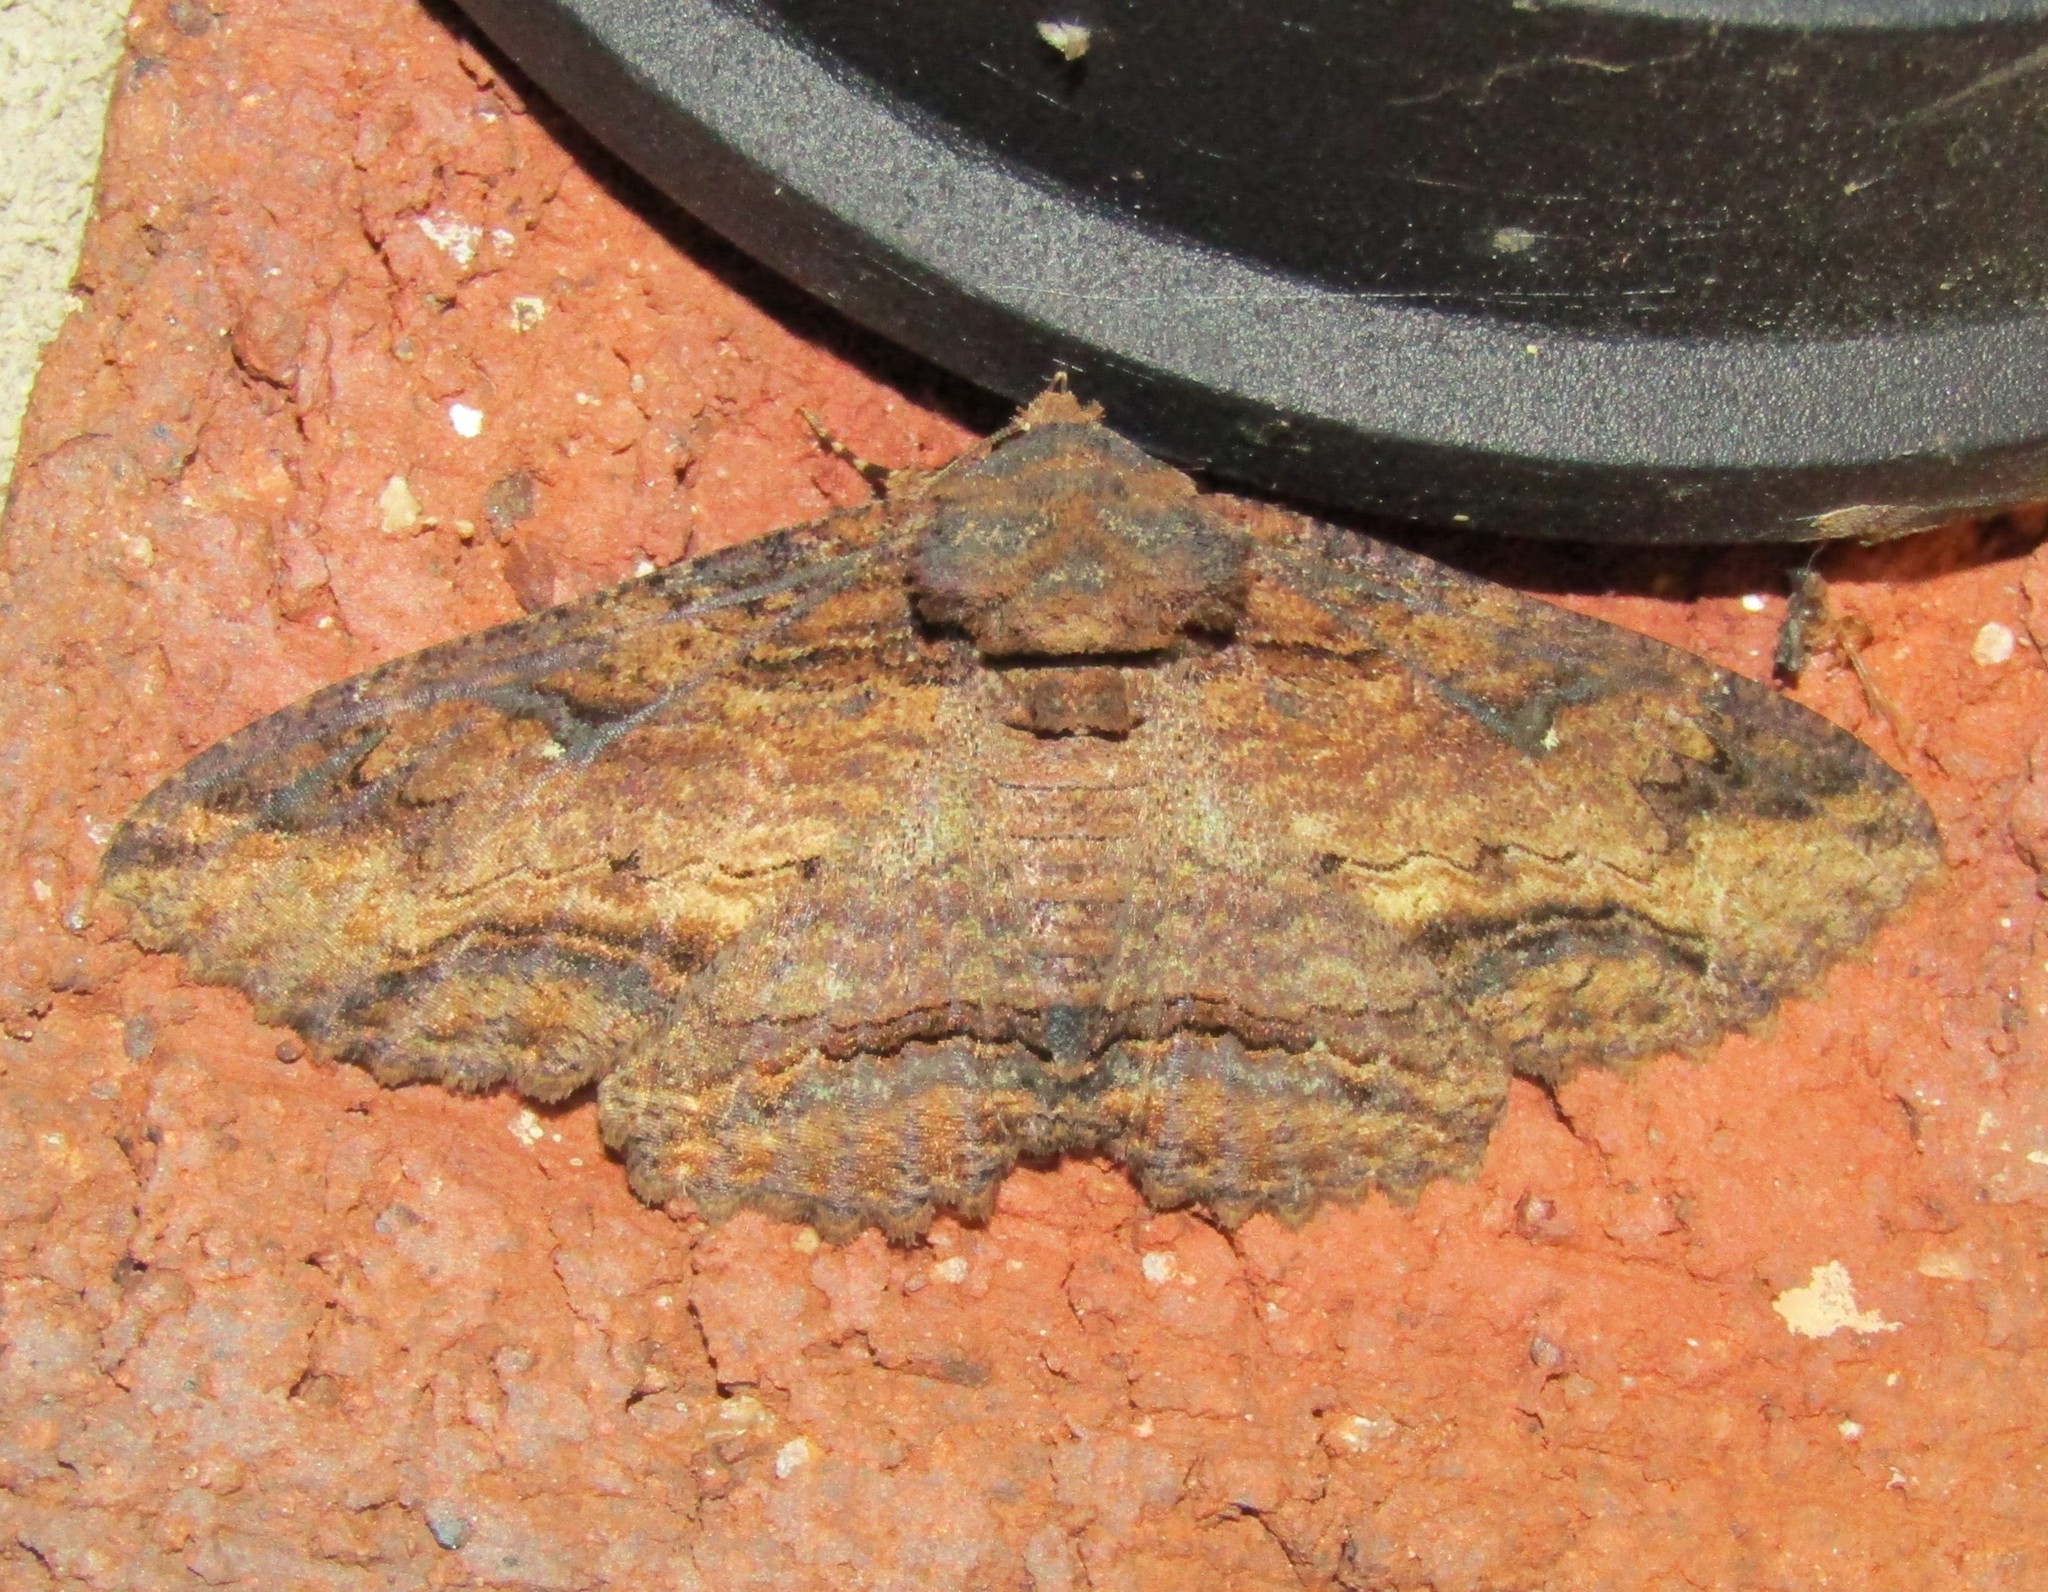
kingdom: Animalia
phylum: Arthropoda
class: Insecta
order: Lepidoptera
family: Erebidae
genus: Zale
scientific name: Zale lunata
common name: Lunate zale moth
